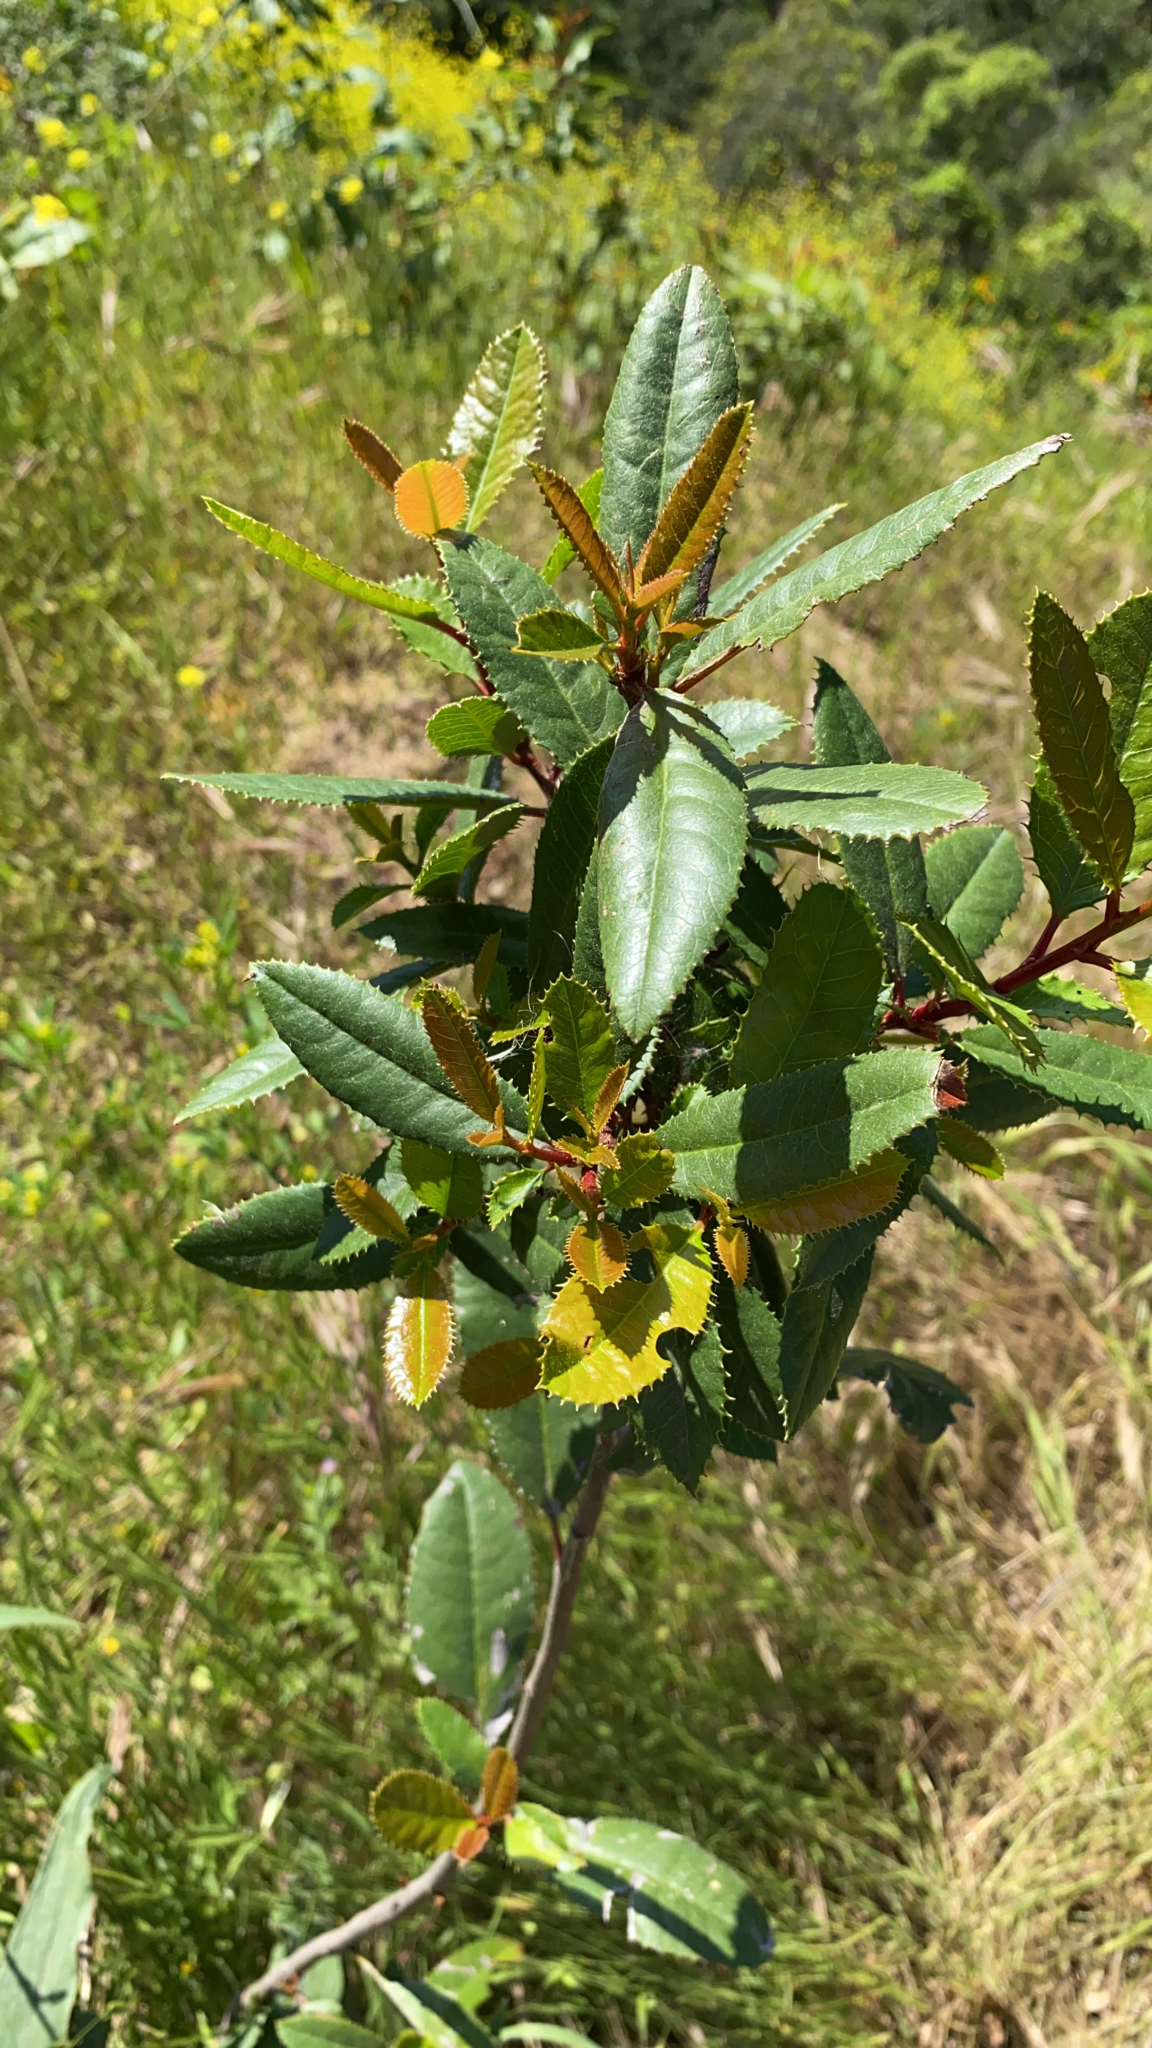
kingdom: Plantae
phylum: Tracheophyta
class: Magnoliopsida
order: Rosales
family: Rosaceae
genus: Heteromeles
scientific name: Heteromeles arbutifolia
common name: California-holly
